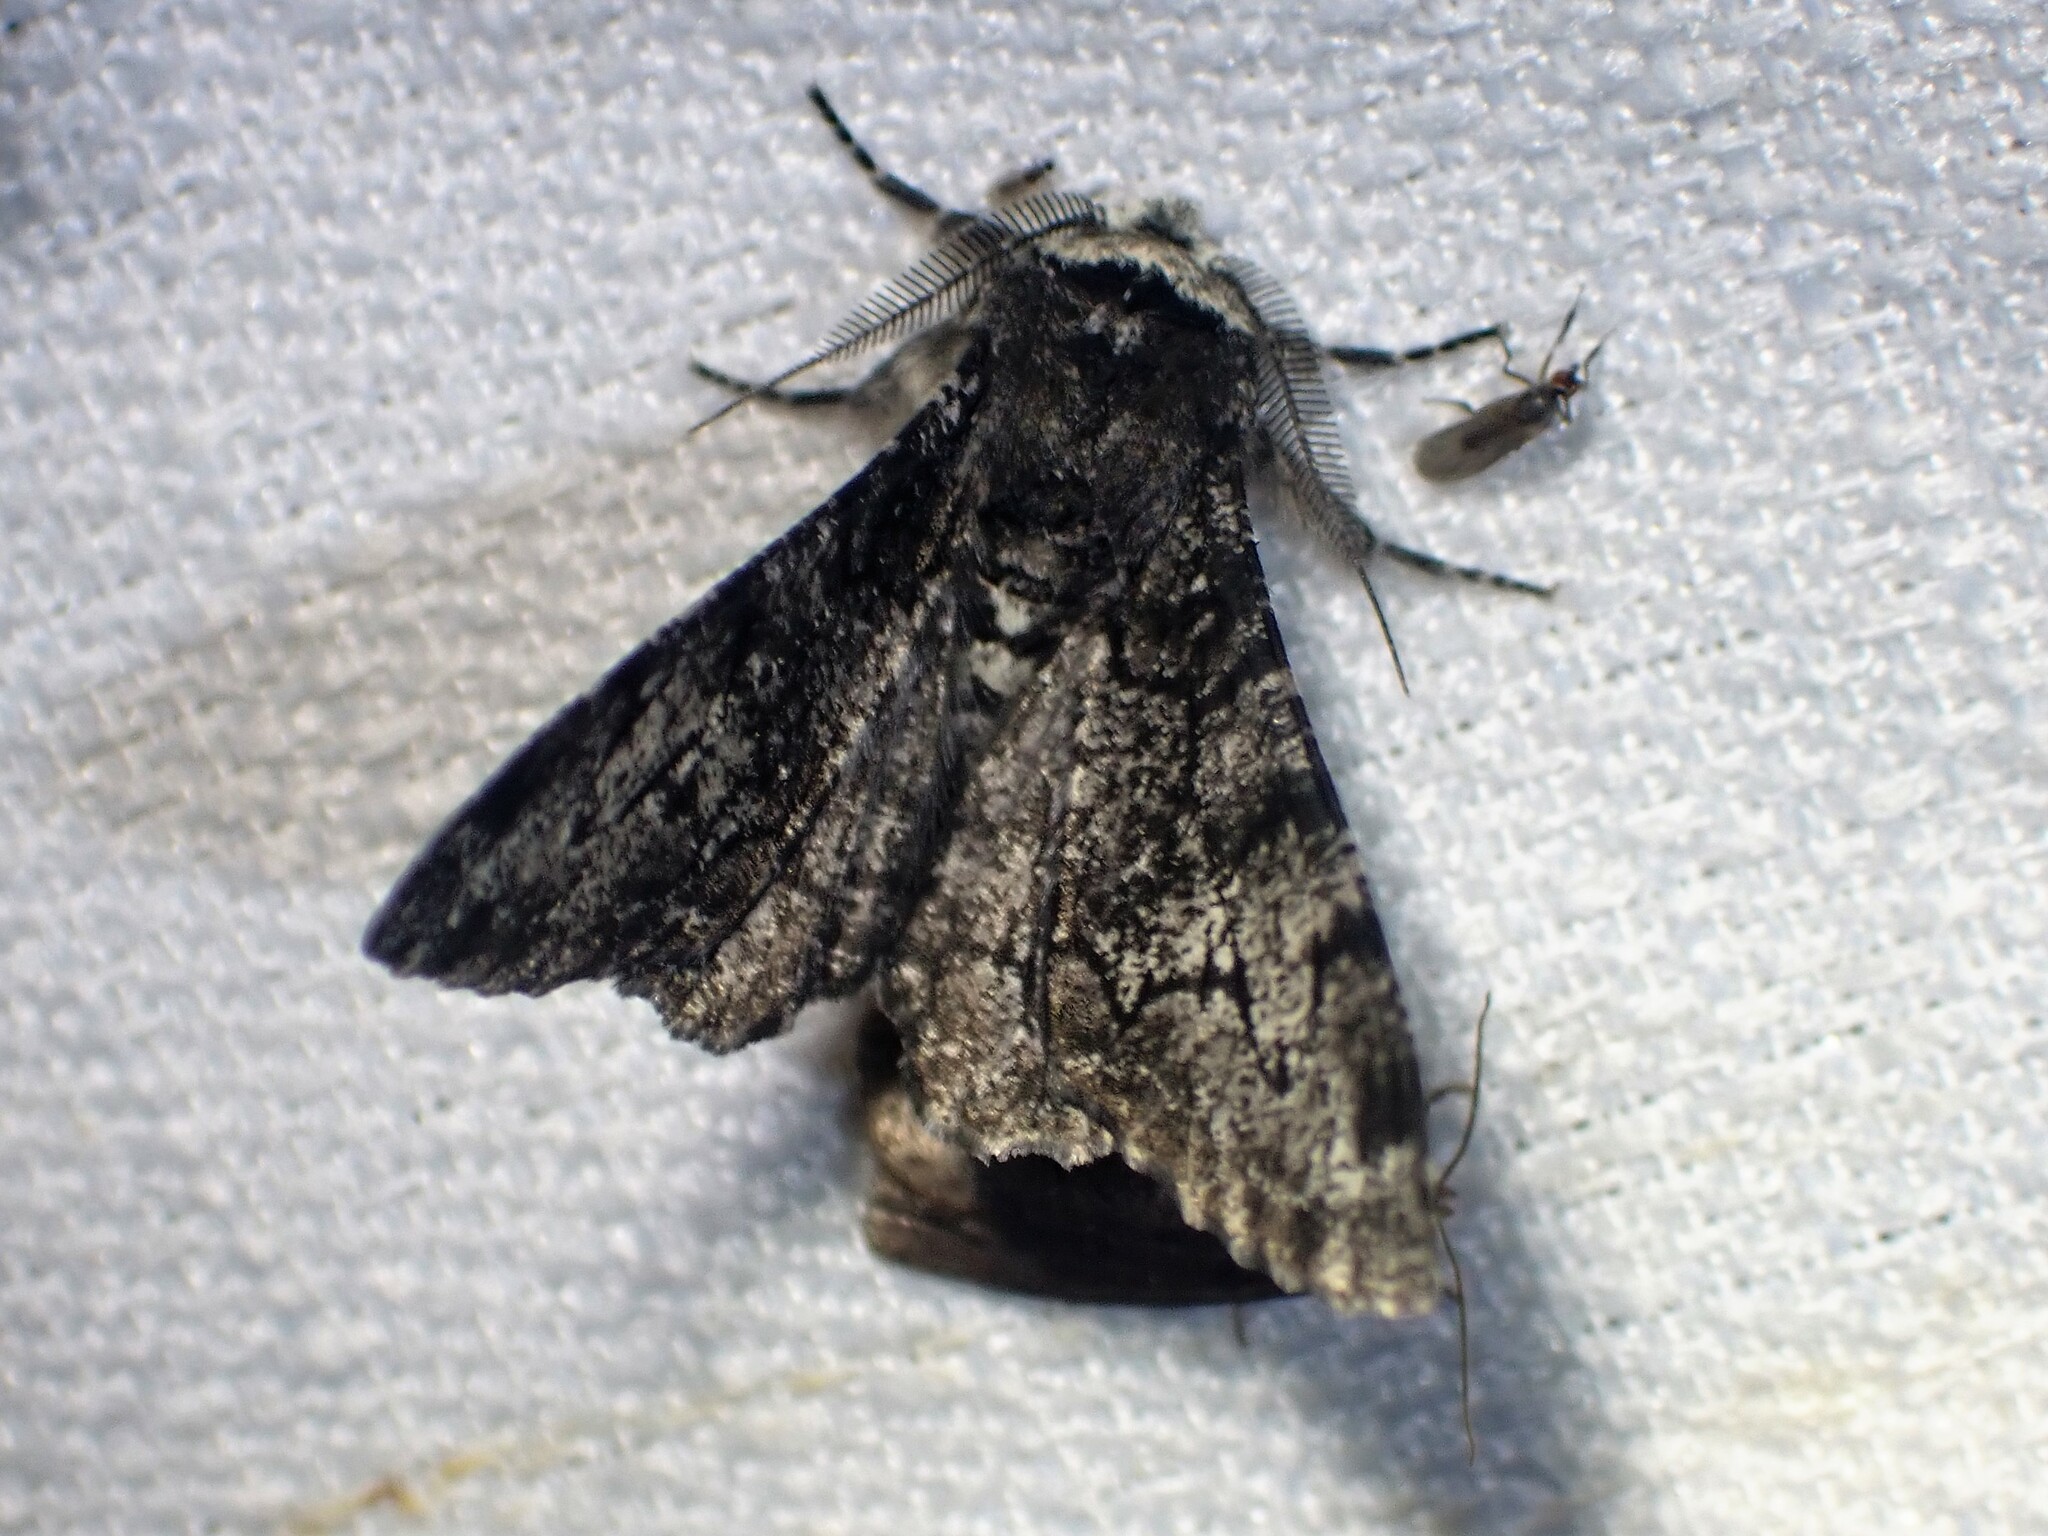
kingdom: Animalia
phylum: Arthropoda
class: Insecta
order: Lepidoptera
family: Geometridae
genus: Biston
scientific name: Biston betularia
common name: Peppered moth
